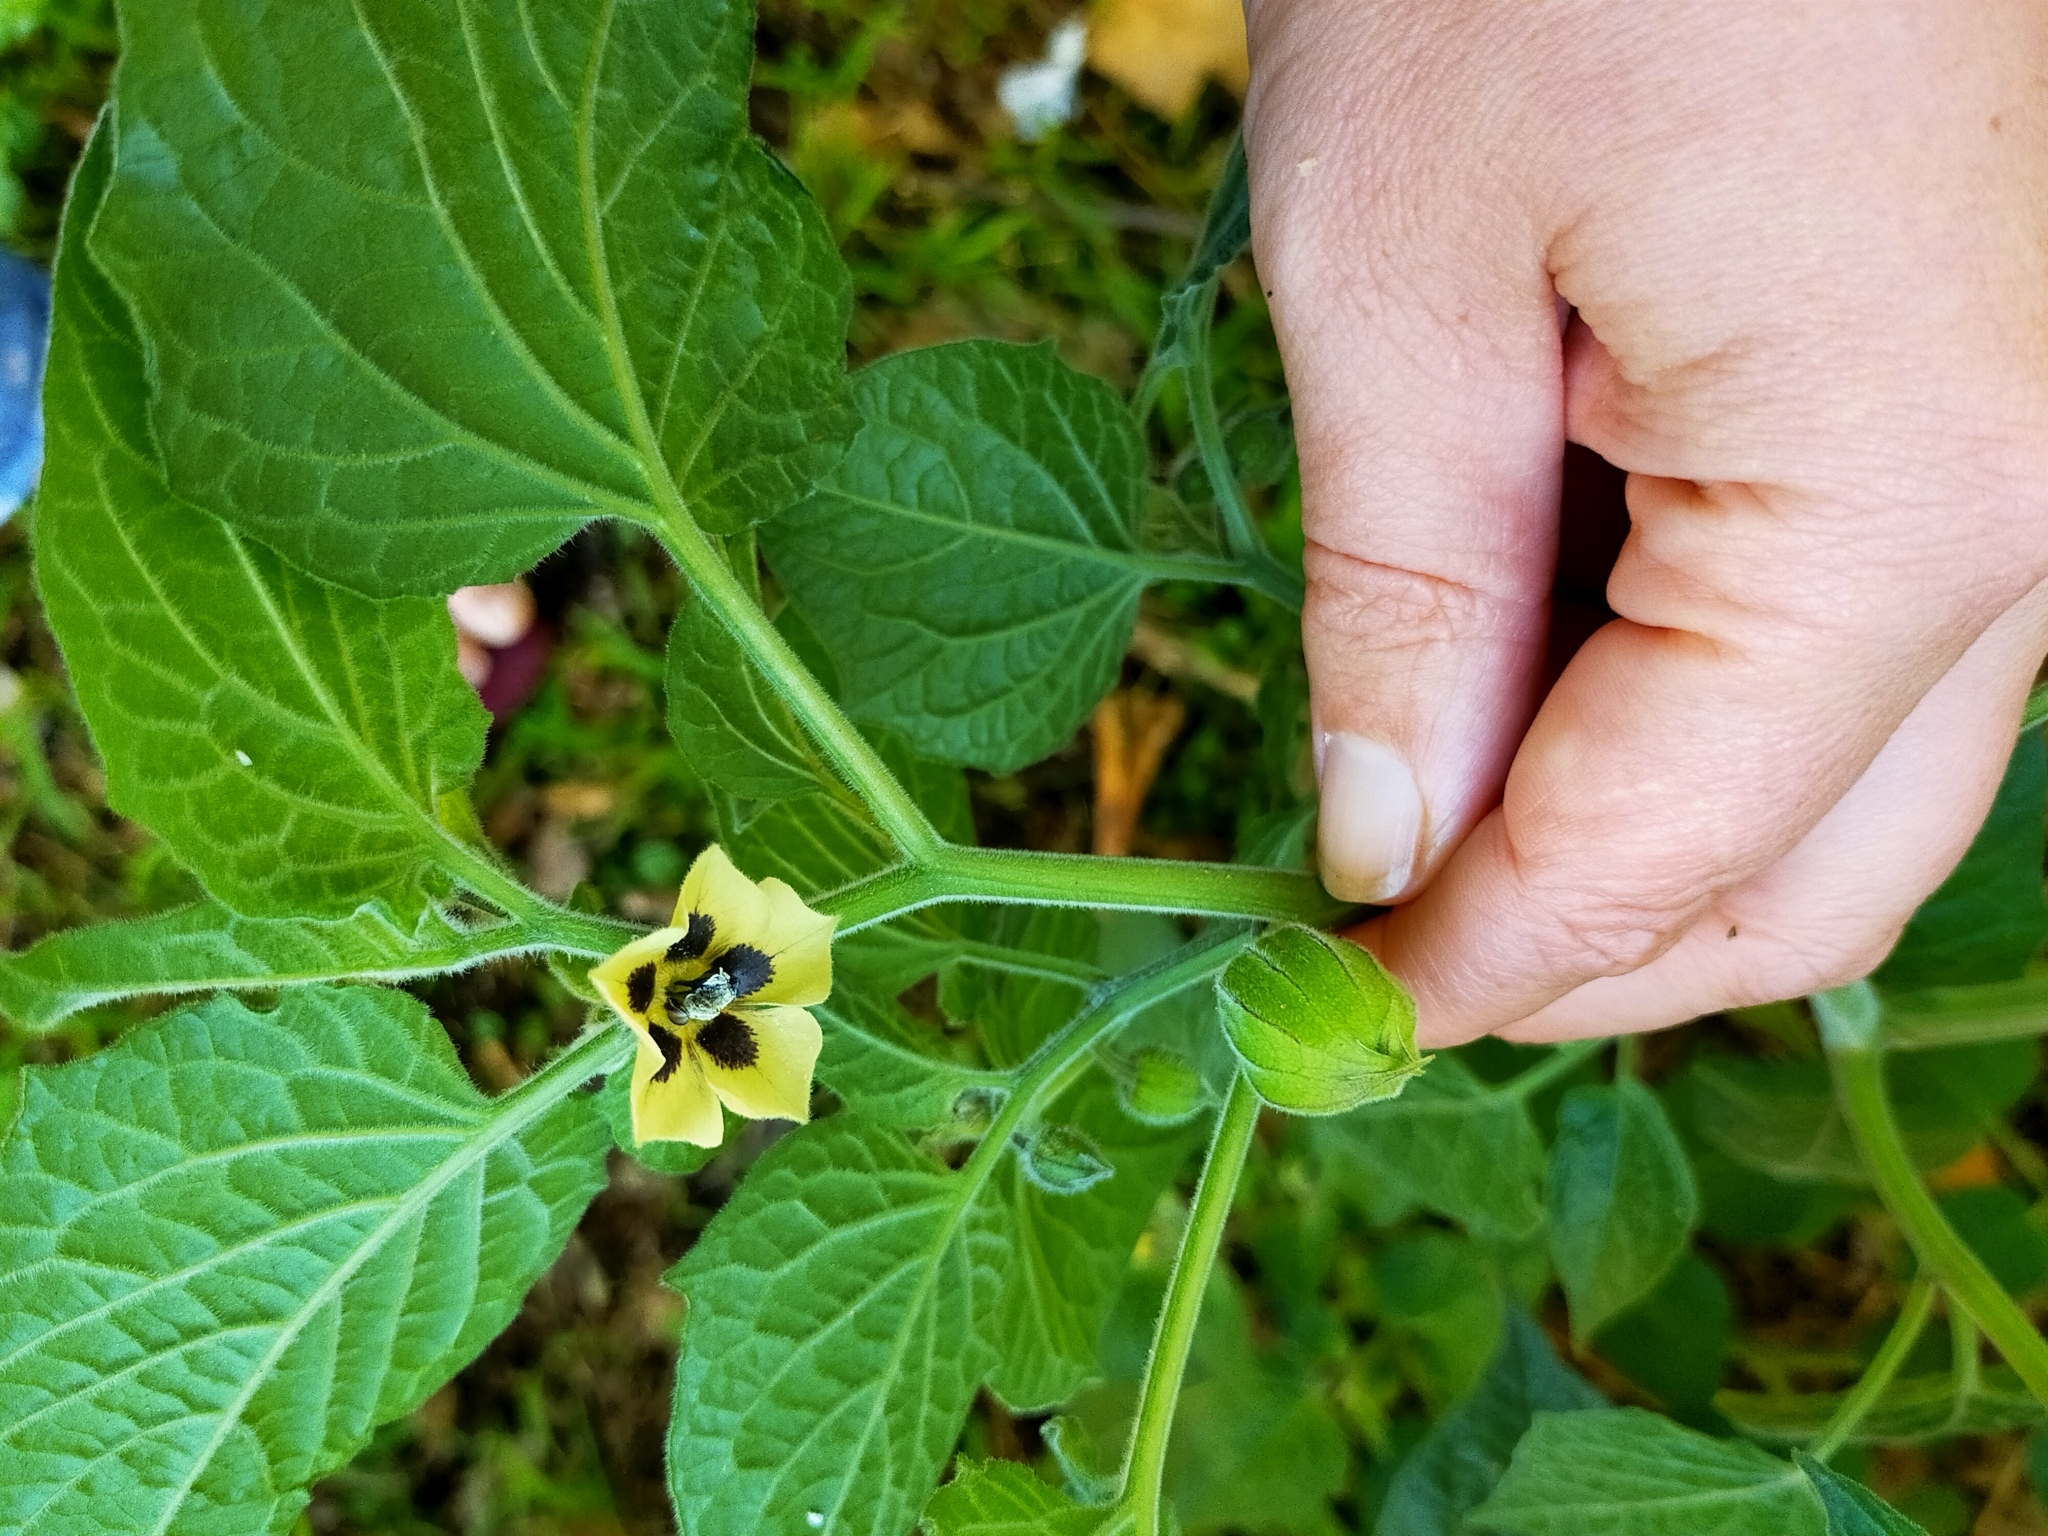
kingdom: Plantae
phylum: Tracheophyta
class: Magnoliopsida
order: Solanales
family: Solanaceae
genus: Physalis
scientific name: Physalis peruviana
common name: Cape-gooseberry
